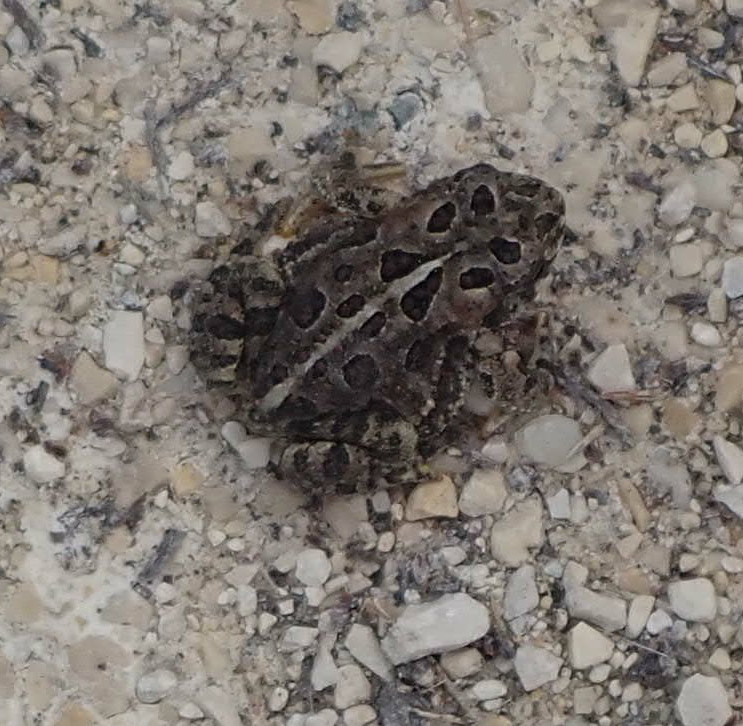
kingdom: Animalia
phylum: Chordata
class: Amphibia
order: Anura
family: Bufonidae
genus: Anaxyrus
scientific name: Anaxyrus hemiophrys
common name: Canadian toad
